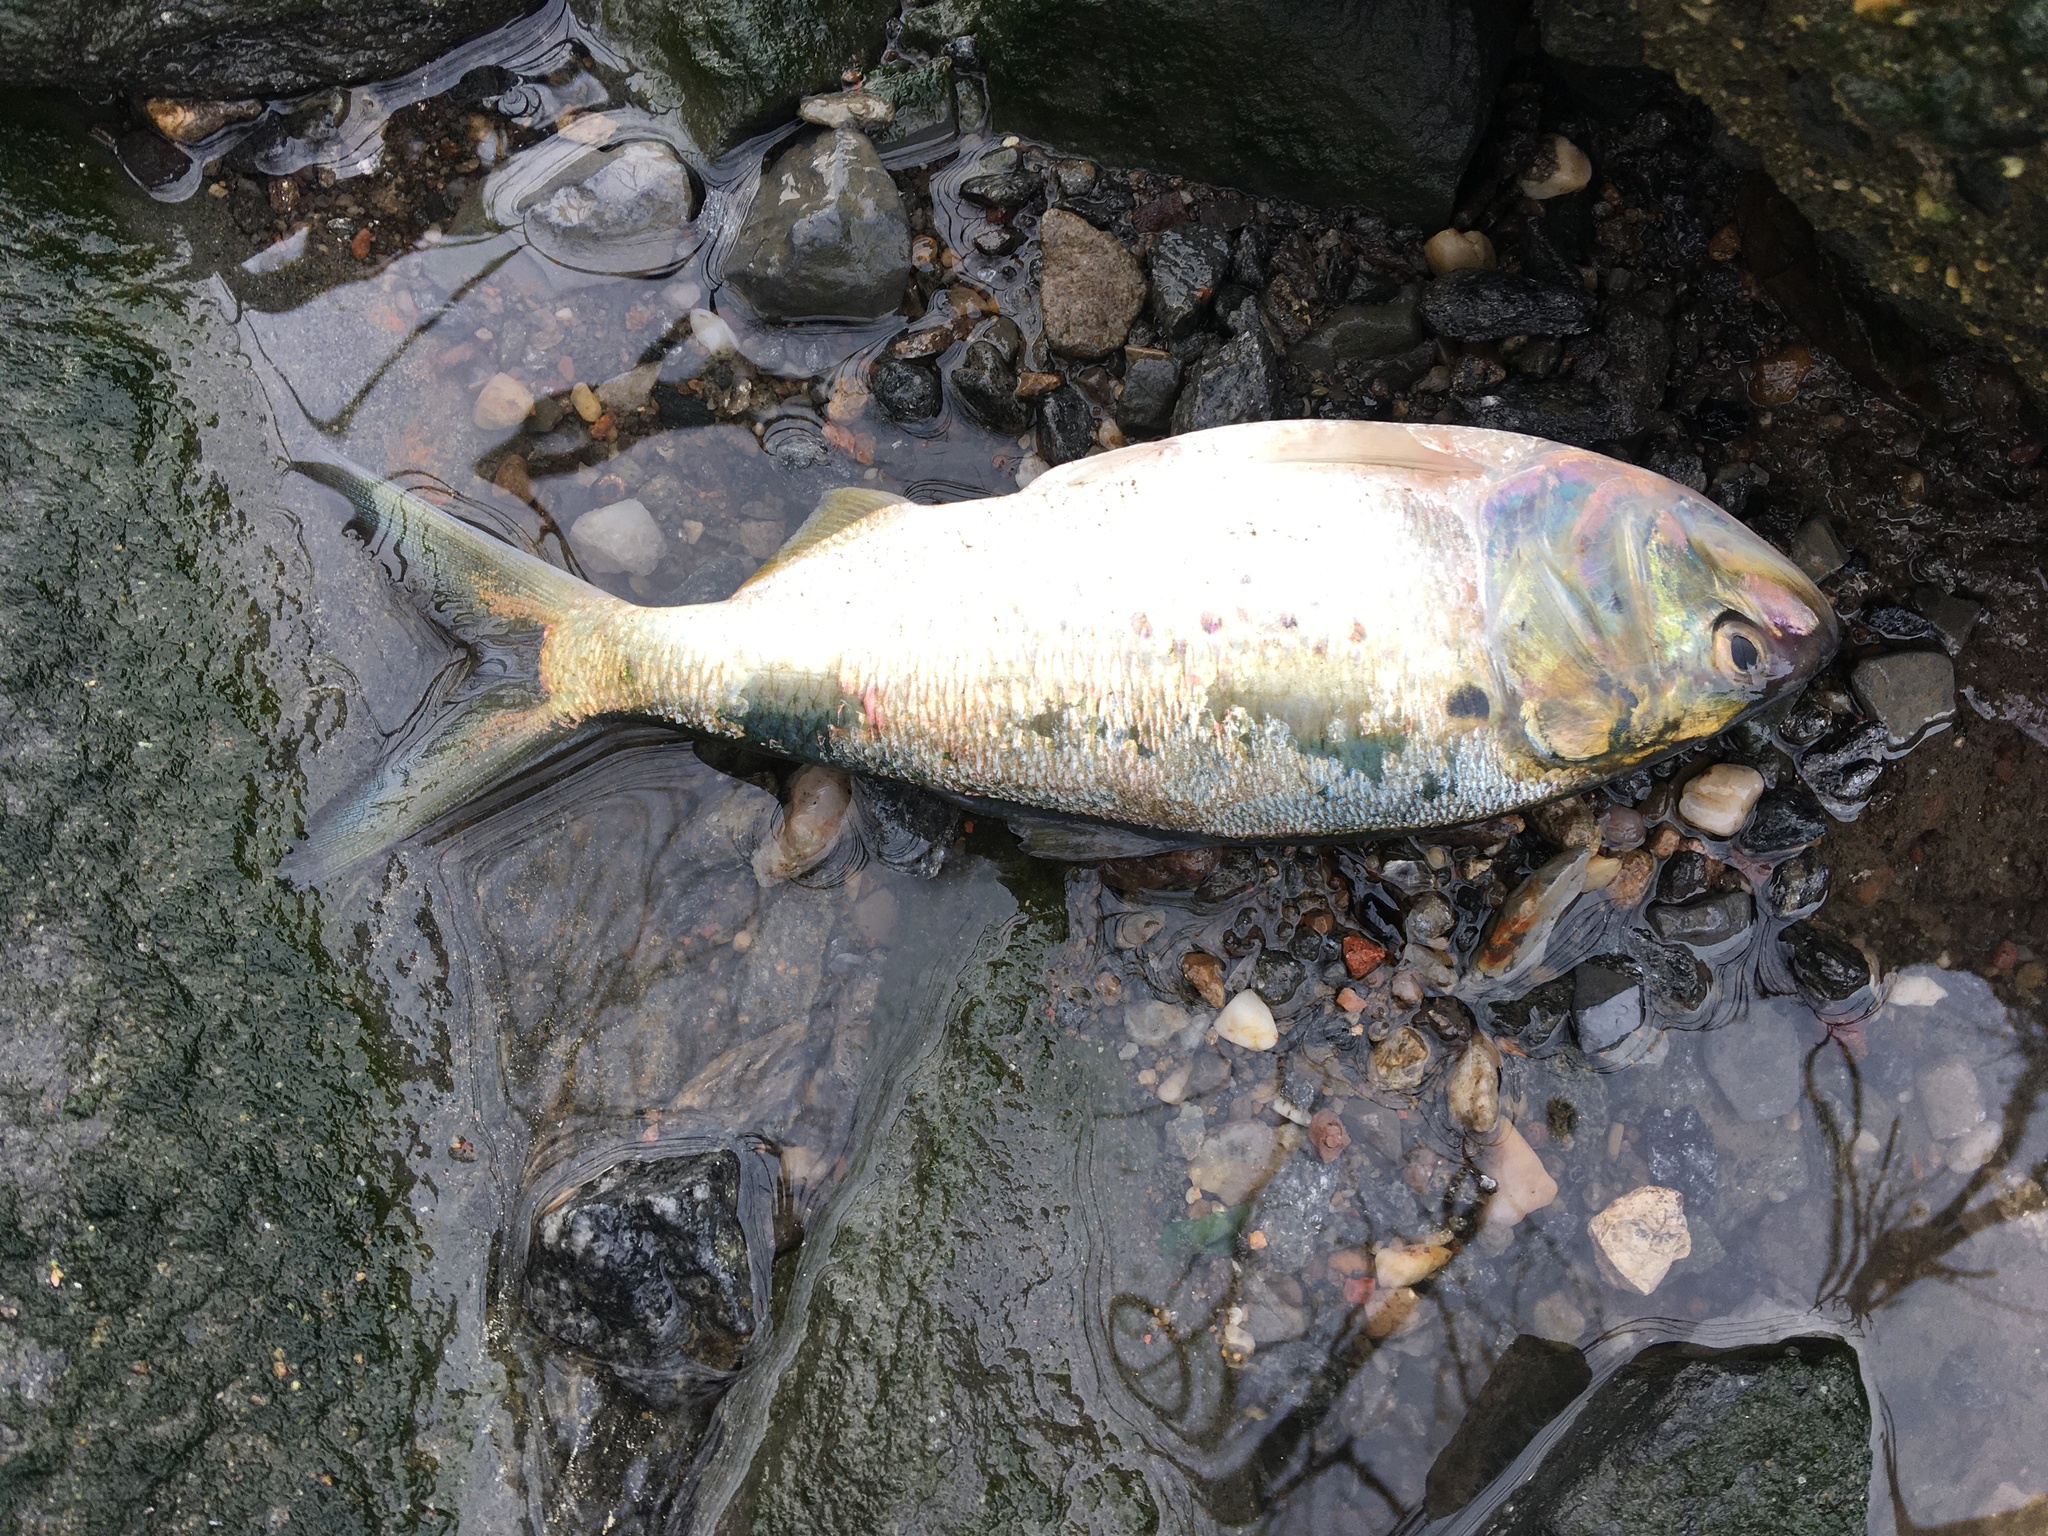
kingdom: Animalia
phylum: Chordata
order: Clupeiformes
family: Clupeidae
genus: Brevoortia
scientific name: Brevoortia tyrannus
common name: Atlantic menhaden
